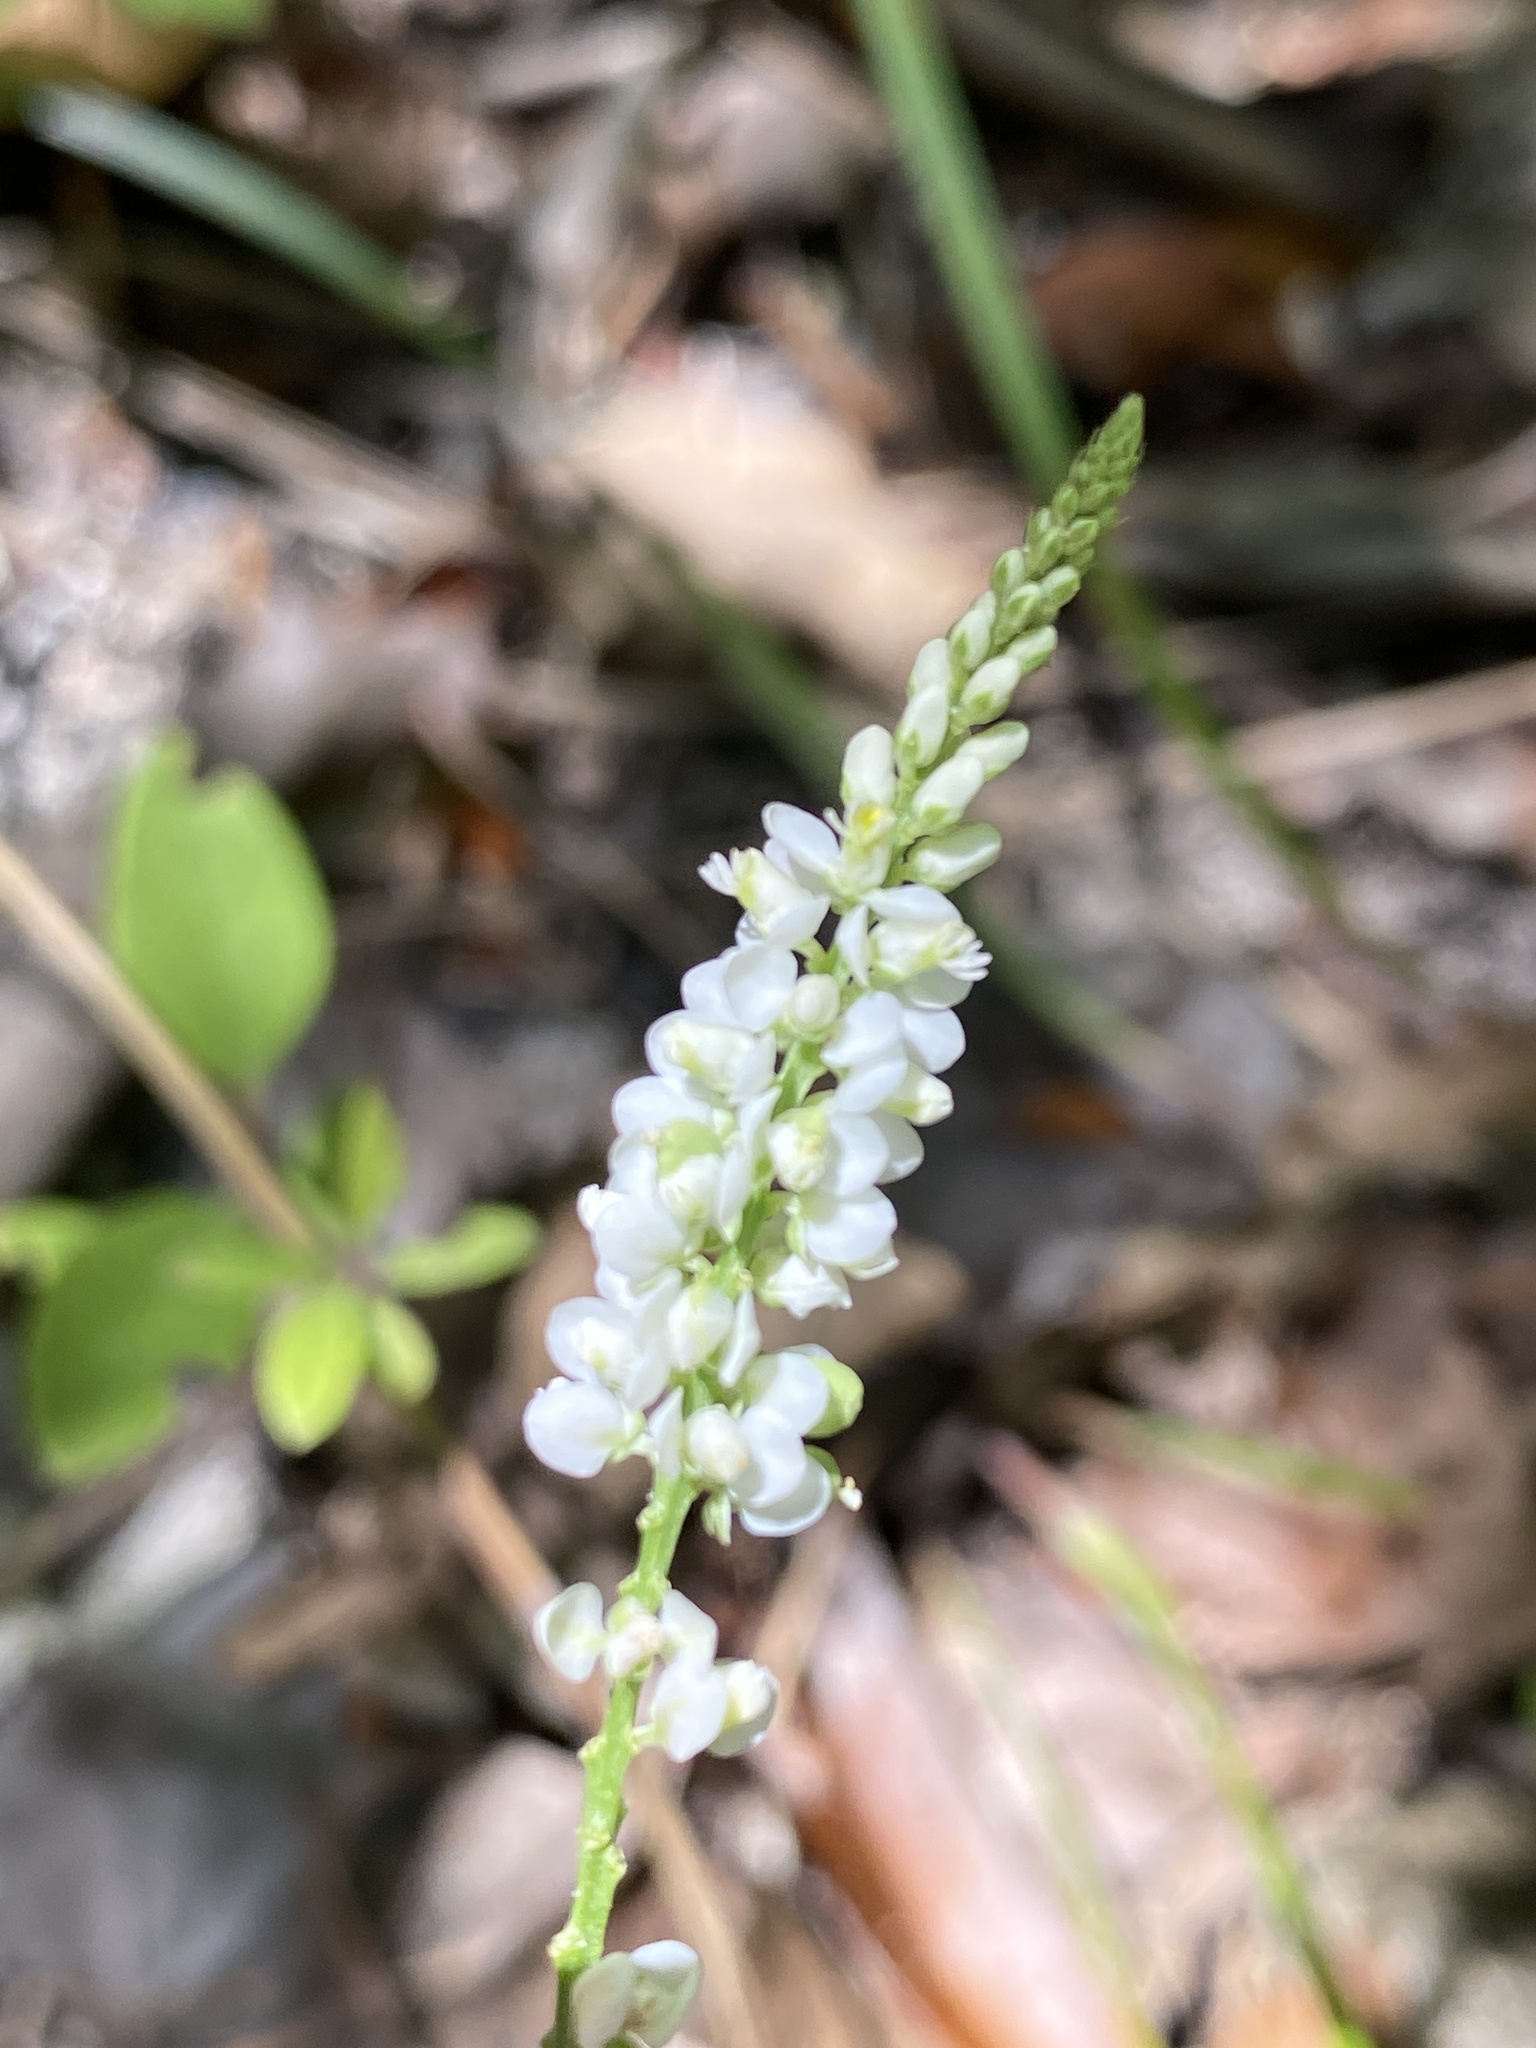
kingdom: Plantae
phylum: Tracheophyta
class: Magnoliopsida
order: Fabales
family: Polygalaceae
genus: Polygala
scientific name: Polygala boykinii
